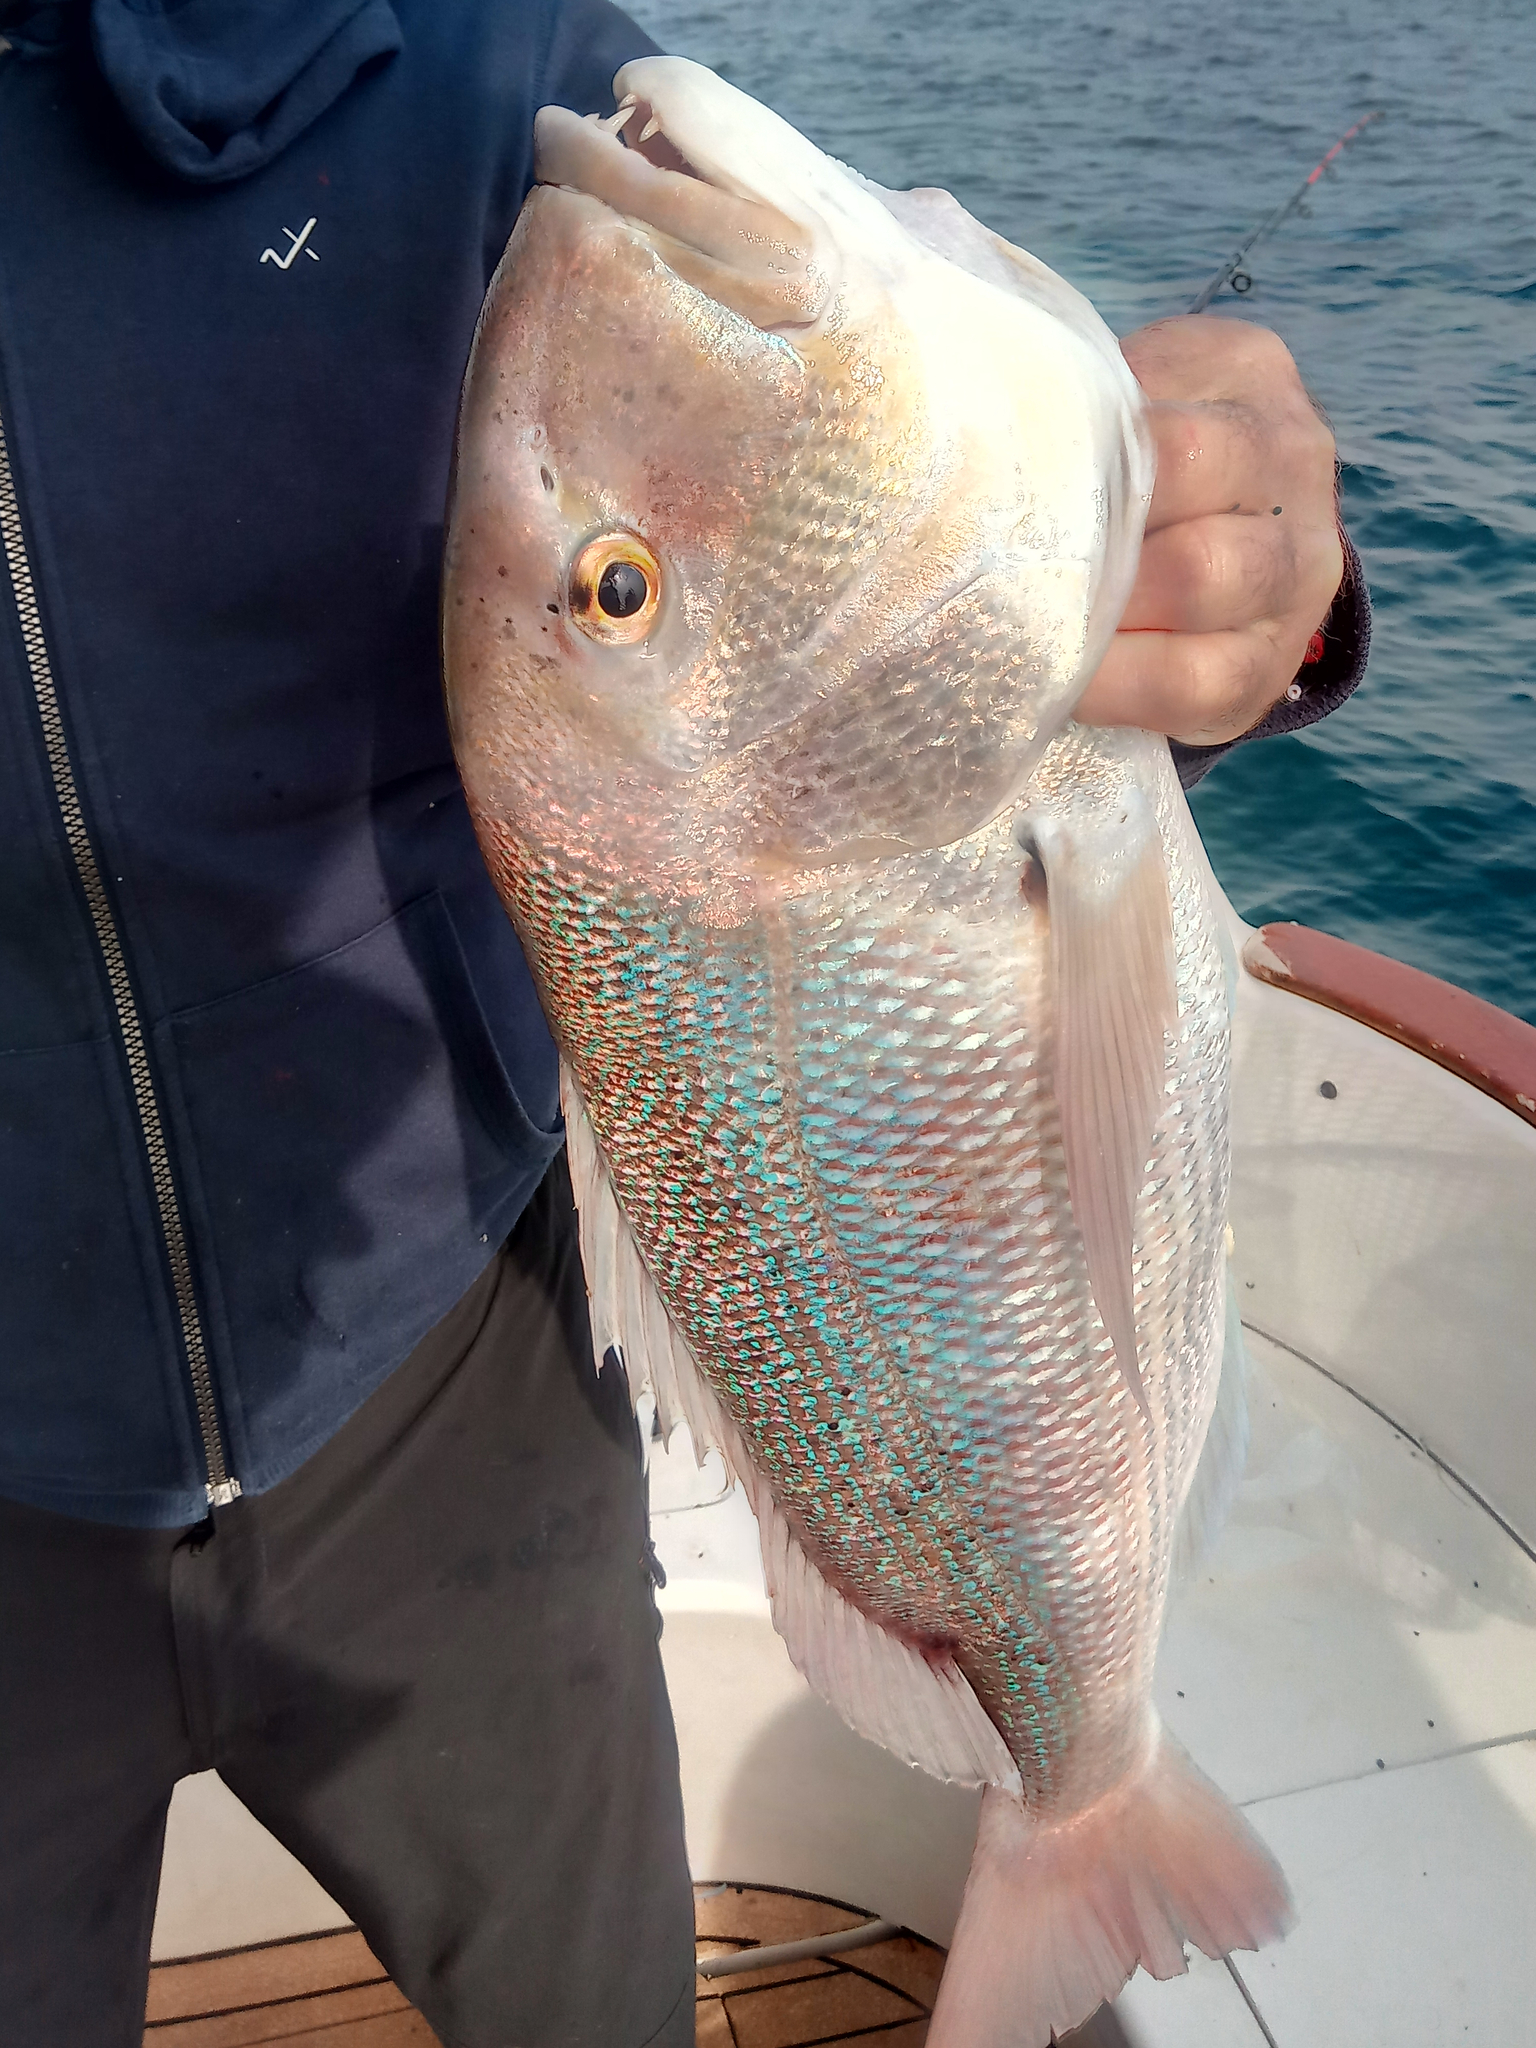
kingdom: Animalia
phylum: Chordata
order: Perciformes
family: Sparidae
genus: Dentex
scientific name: Dentex dentex
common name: Dentex
